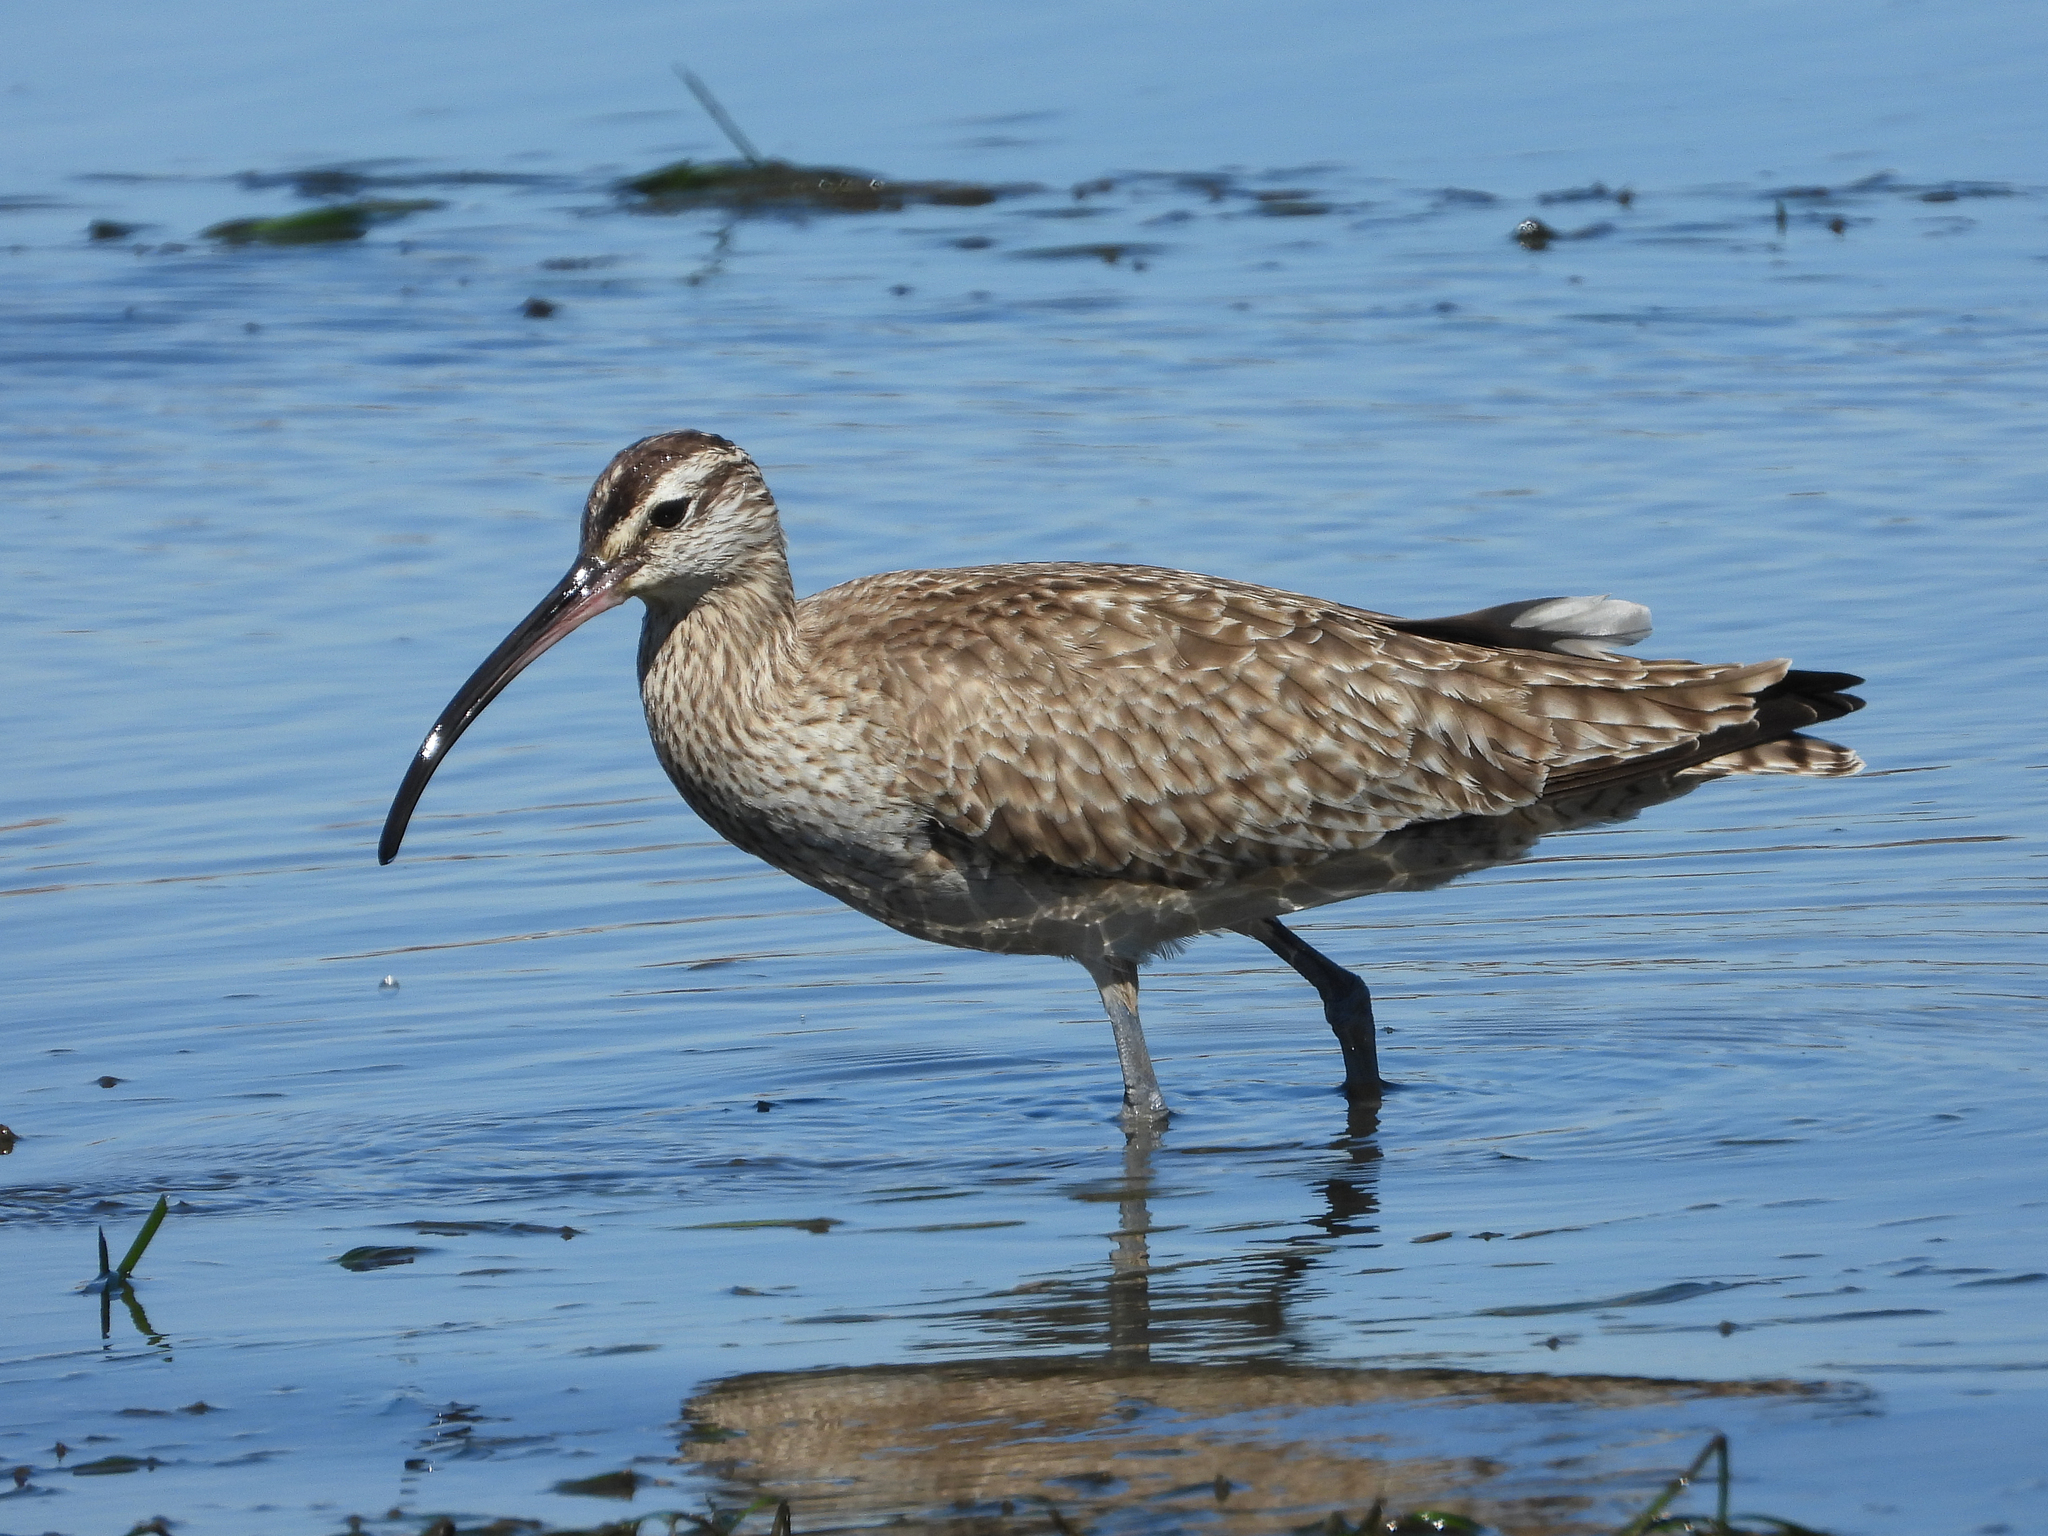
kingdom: Animalia
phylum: Chordata
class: Aves
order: Charadriiformes
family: Scolopacidae
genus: Numenius
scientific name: Numenius phaeopus
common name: Whimbrel
